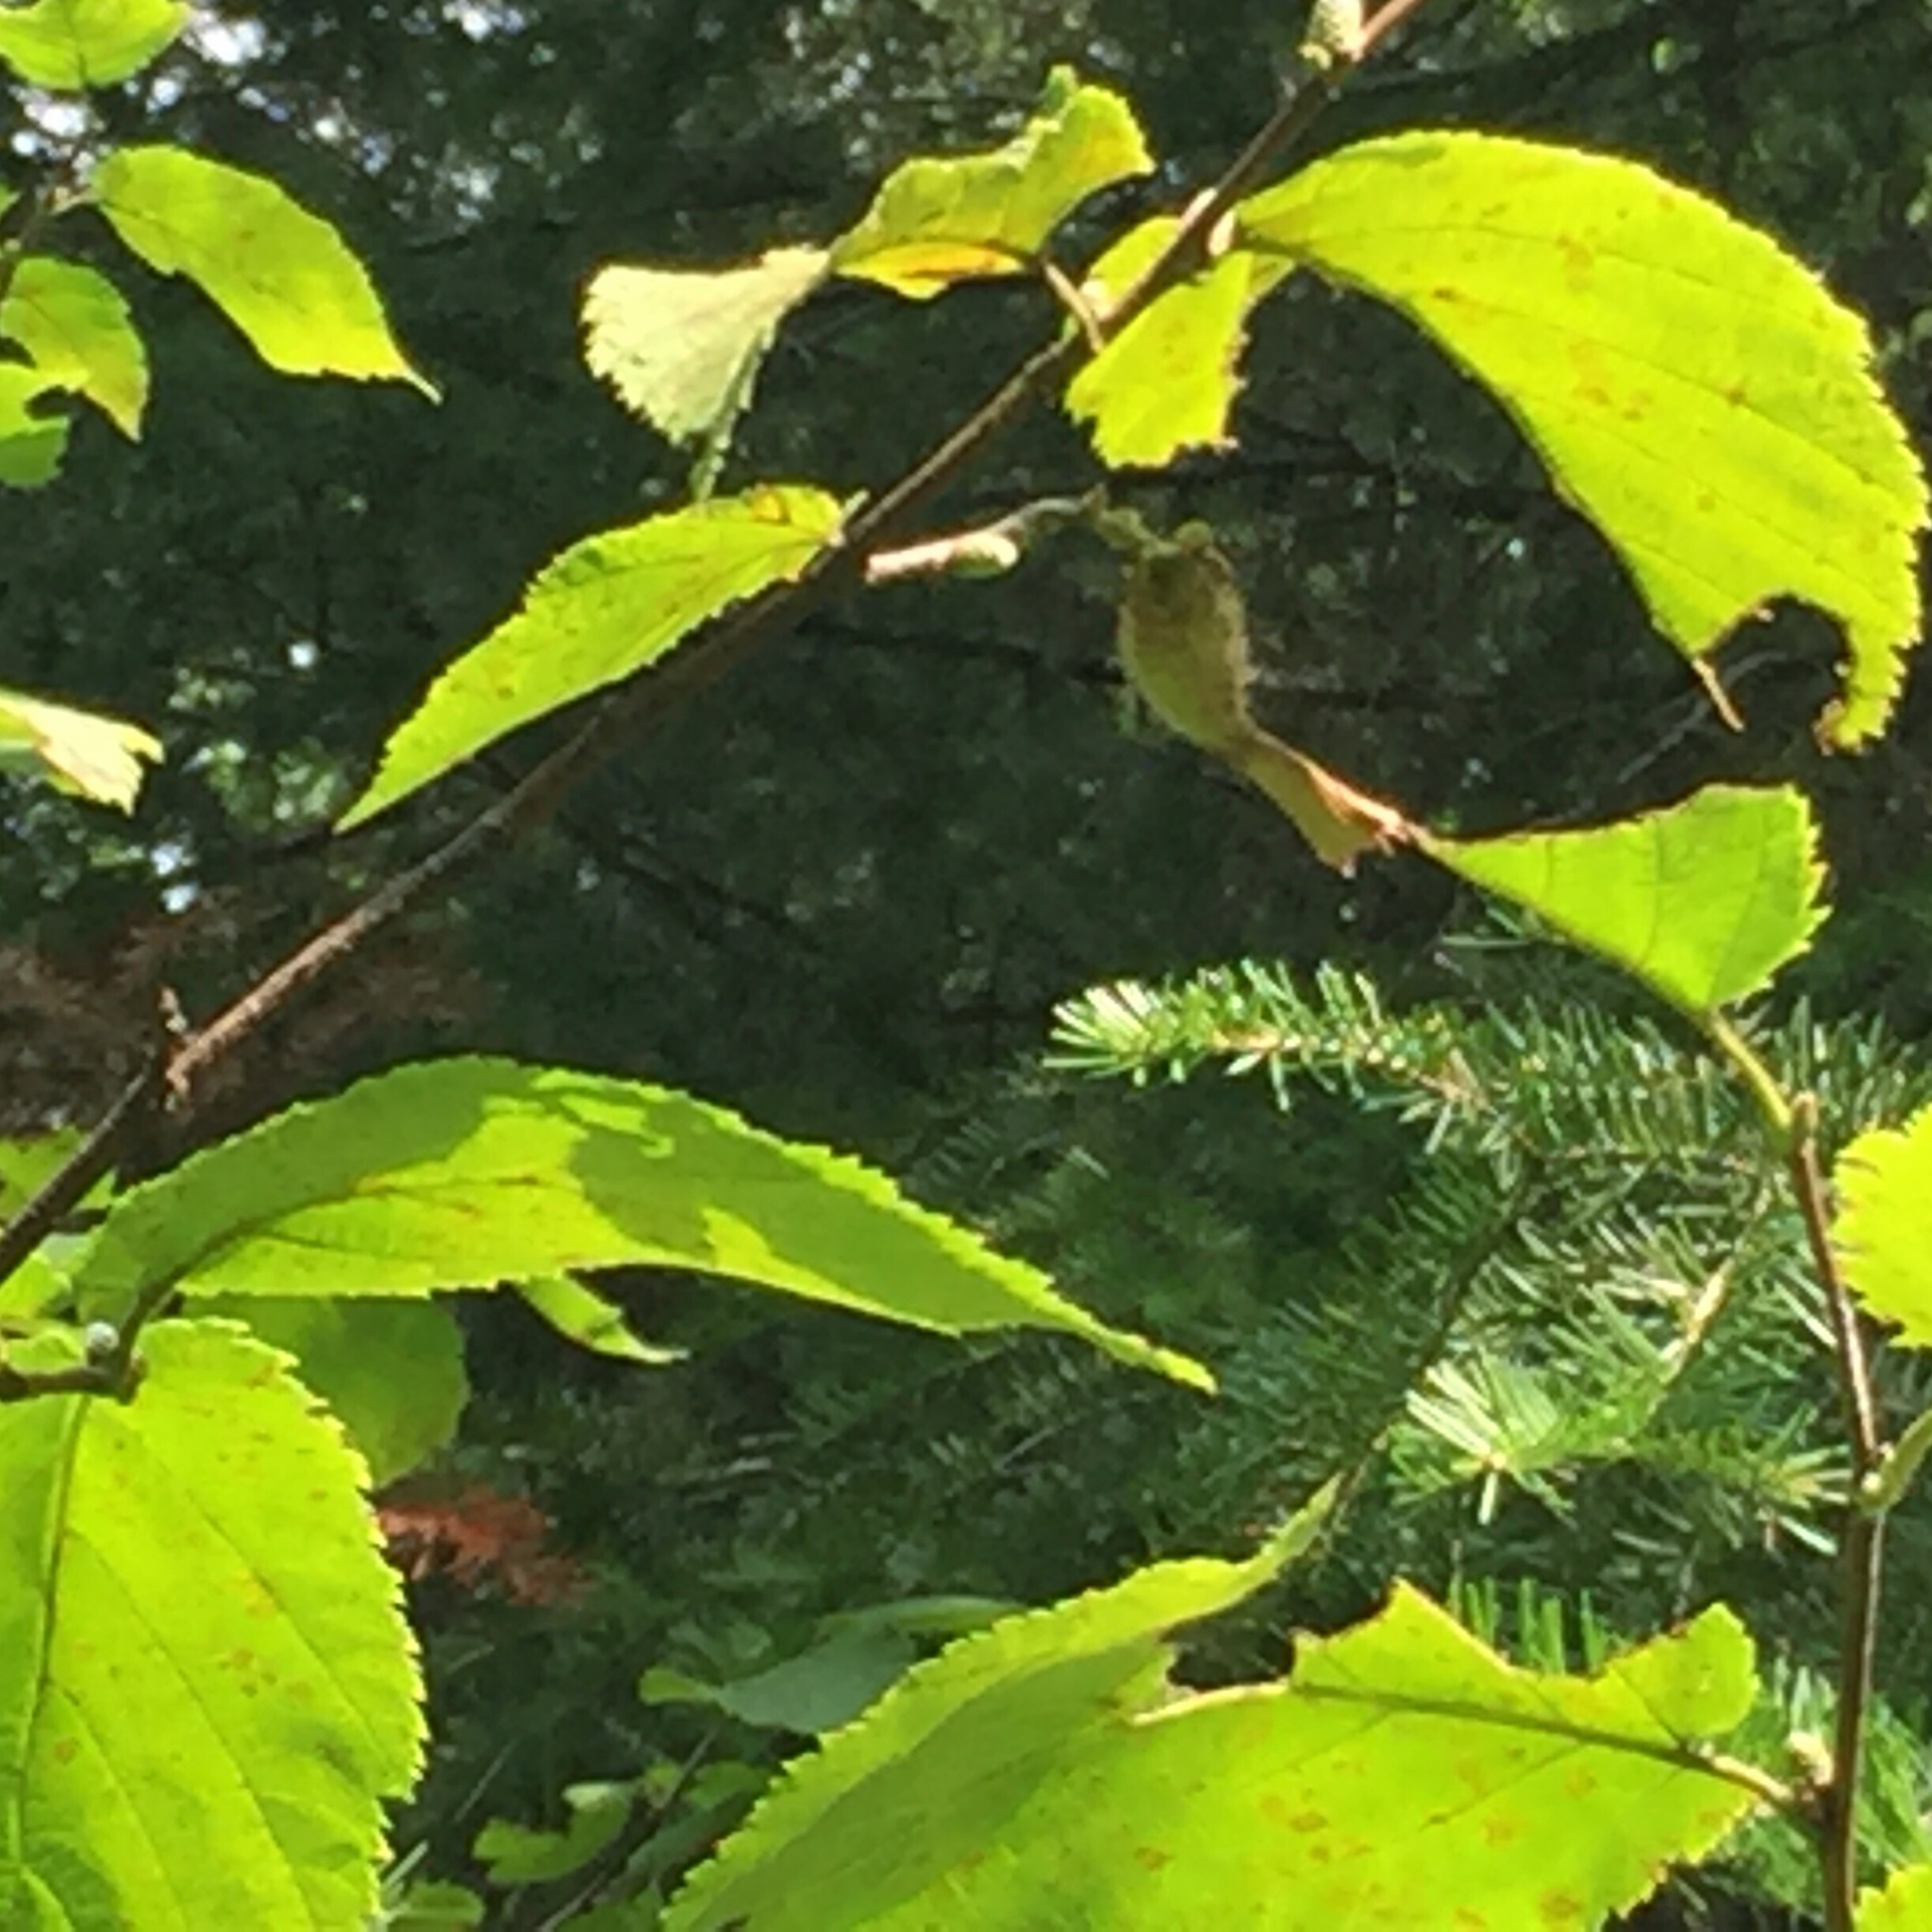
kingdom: Plantae
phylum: Tracheophyta
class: Magnoliopsida
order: Fagales
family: Betulaceae
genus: Corylus
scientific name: Corylus cornuta
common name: Beaked hazel
